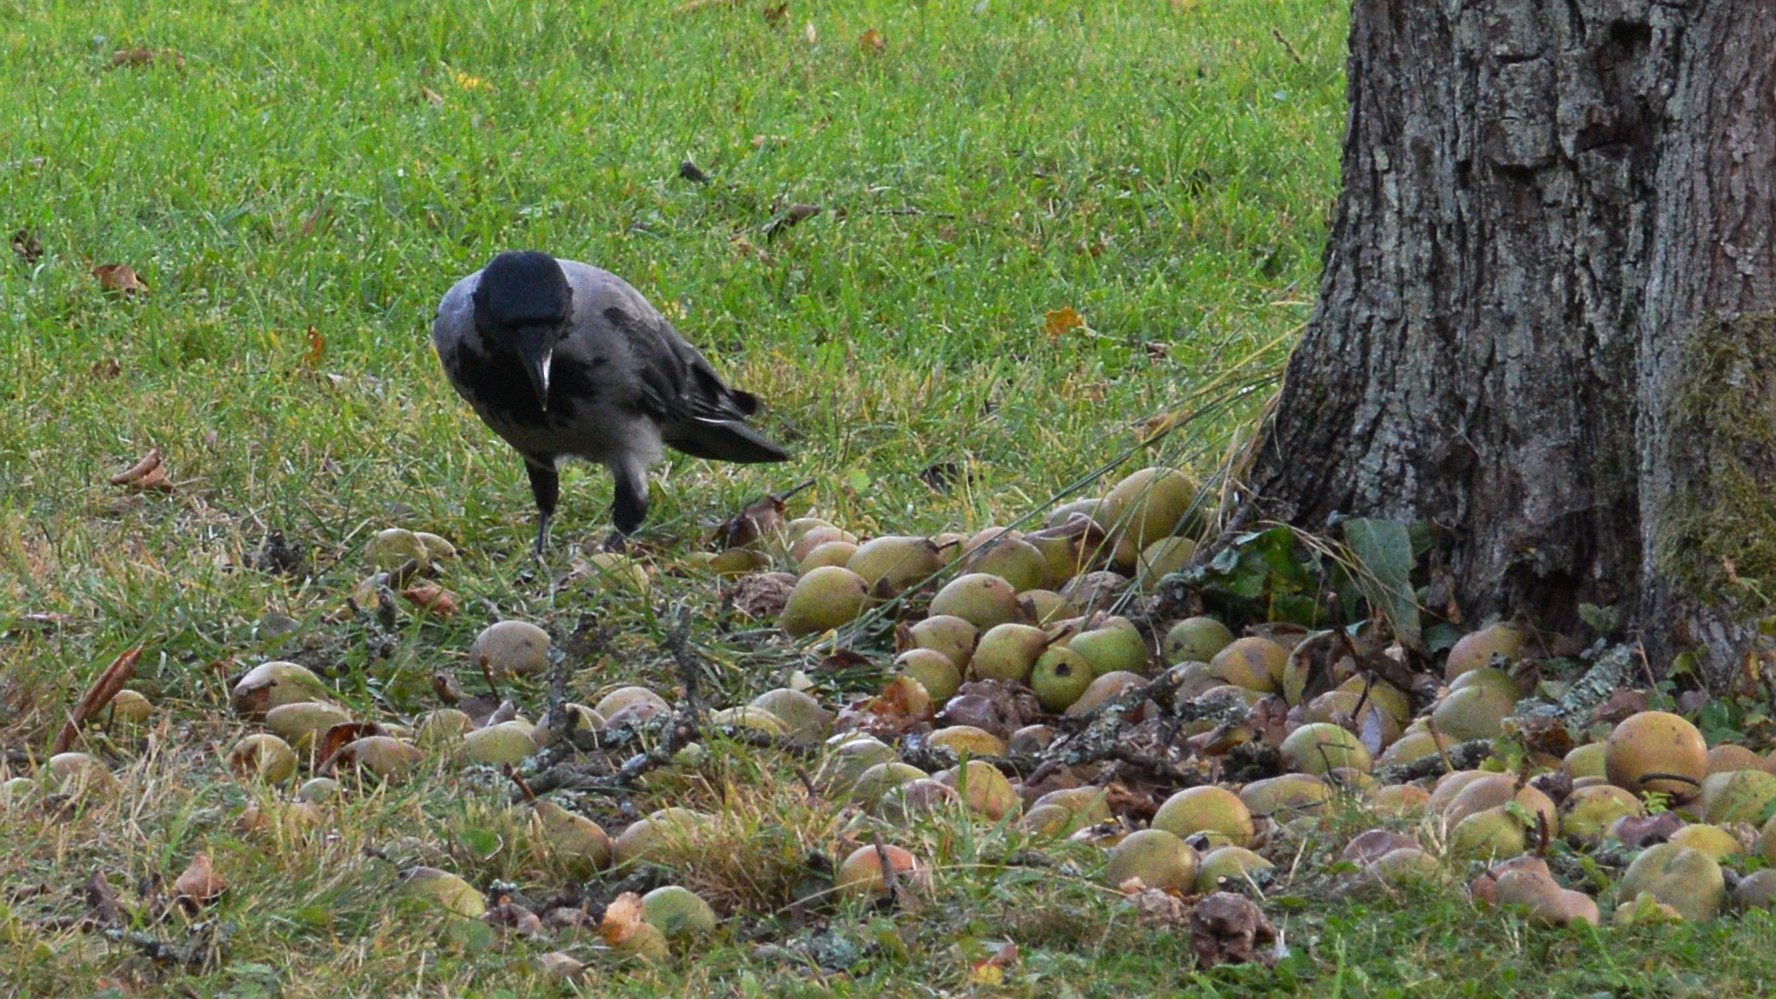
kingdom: Animalia
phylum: Chordata
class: Aves
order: Passeriformes
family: Corvidae
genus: Corvus
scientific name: Corvus cornix
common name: Hooded crow
